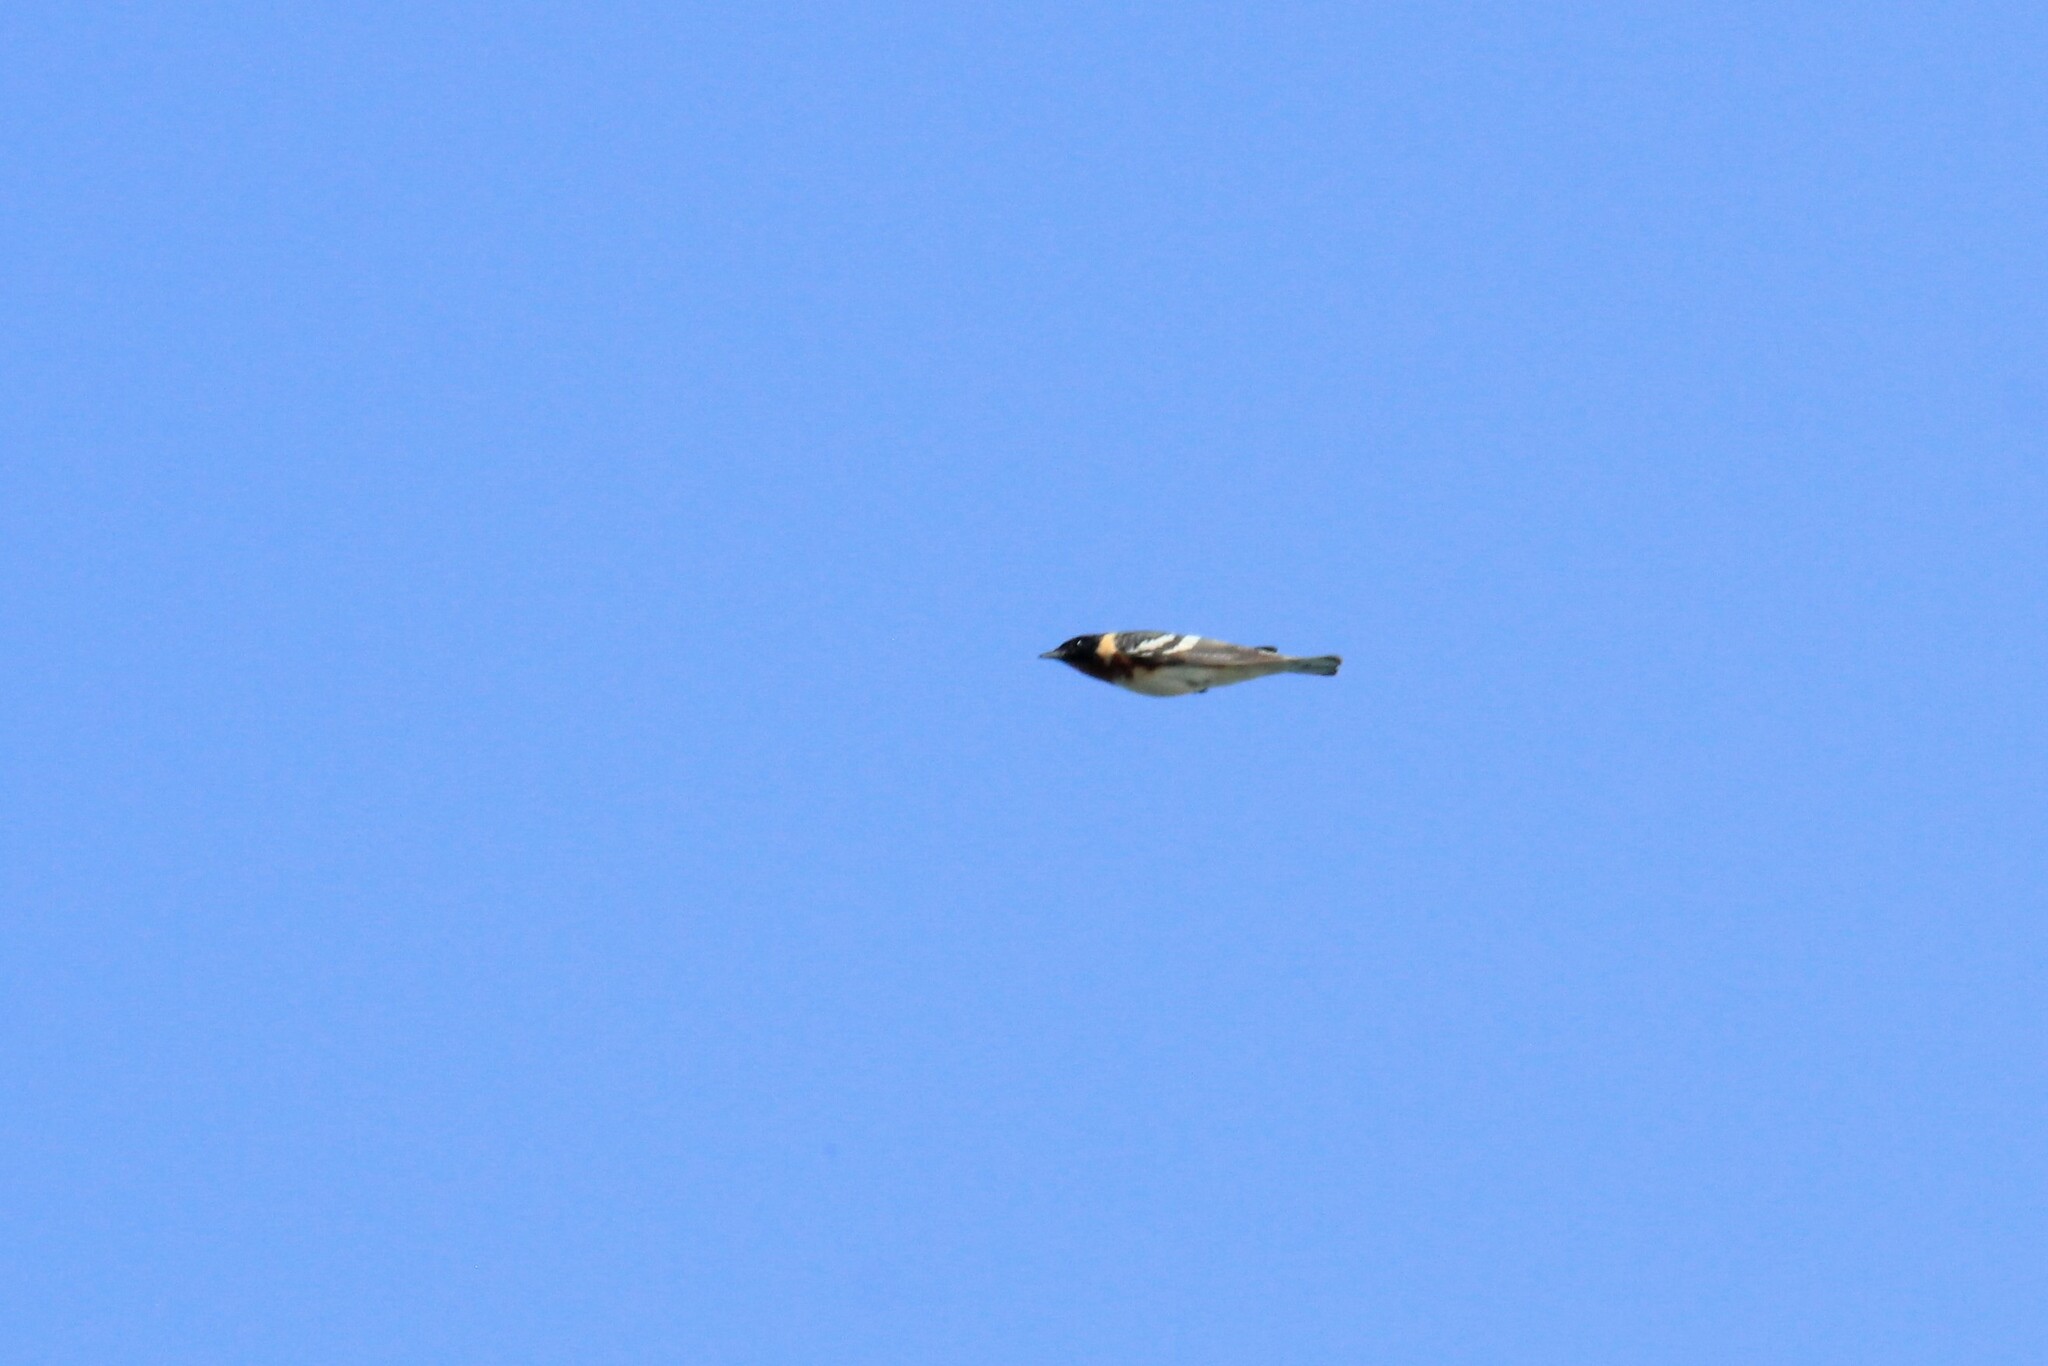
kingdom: Animalia
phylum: Chordata
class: Aves
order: Passeriformes
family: Parulidae
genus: Setophaga
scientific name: Setophaga castanea
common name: Bay-breasted warbler
